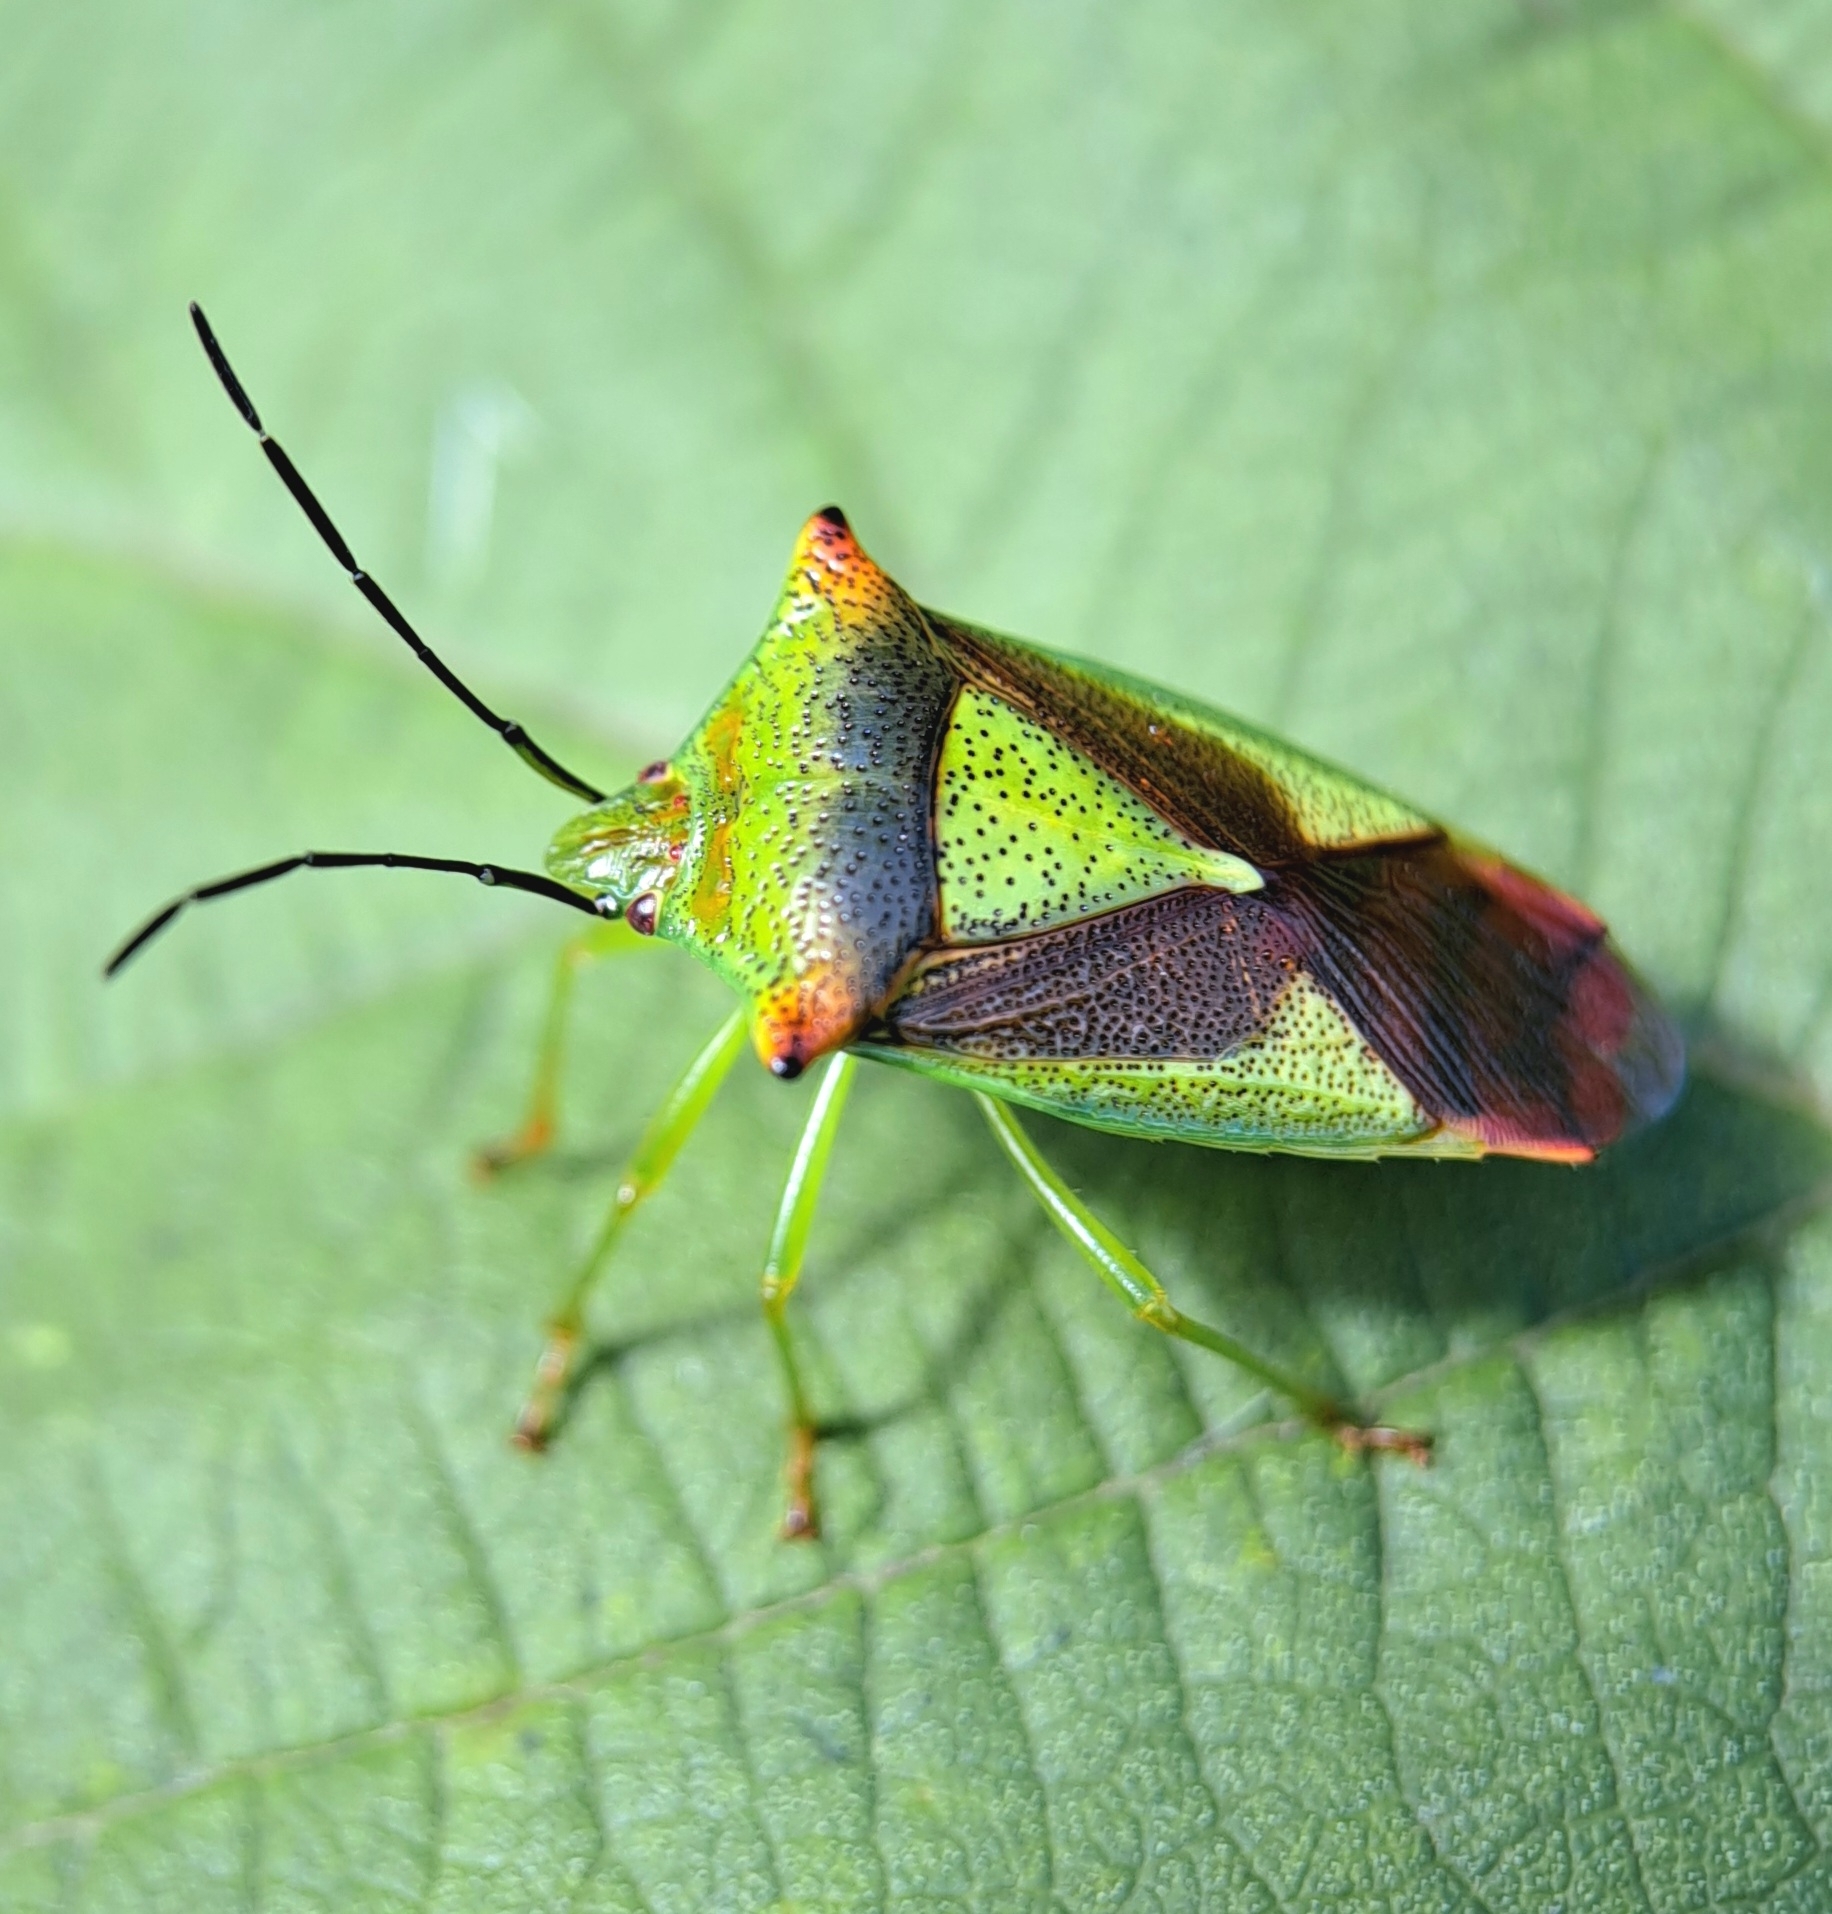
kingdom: Animalia
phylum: Arthropoda
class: Insecta
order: Hemiptera
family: Acanthosomatidae
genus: Acanthosoma
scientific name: Acanthosoma haemorrhoidale
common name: Hawthorn shieldbug
